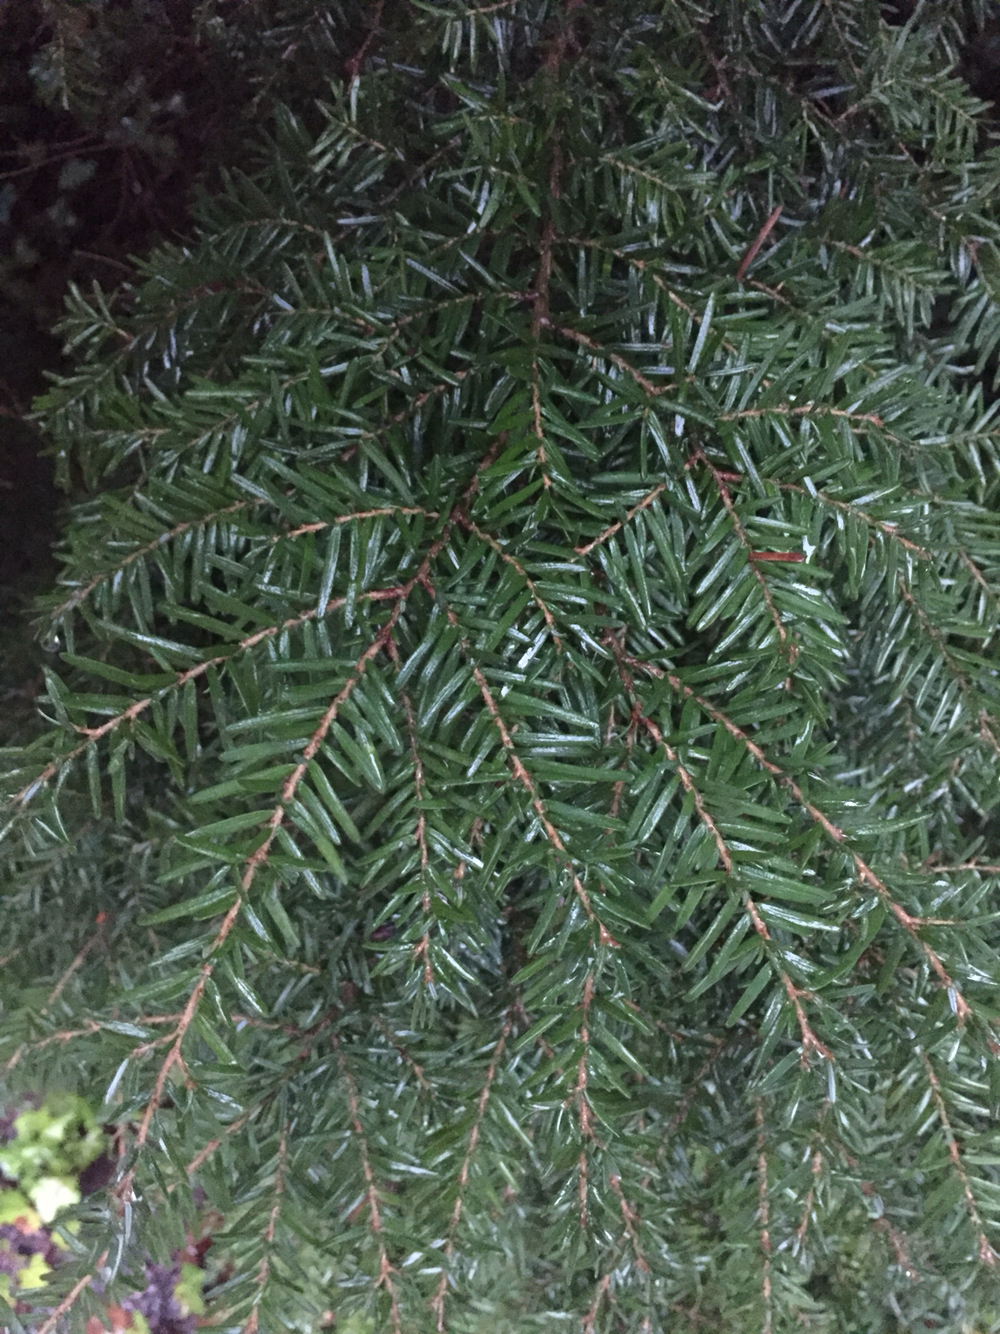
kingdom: Plantae
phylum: Tracheophyta
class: Pinopsida
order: Pinales
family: Pinaceae
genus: Tsuga
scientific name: Tsuga heterophylla
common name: Western hemlock
